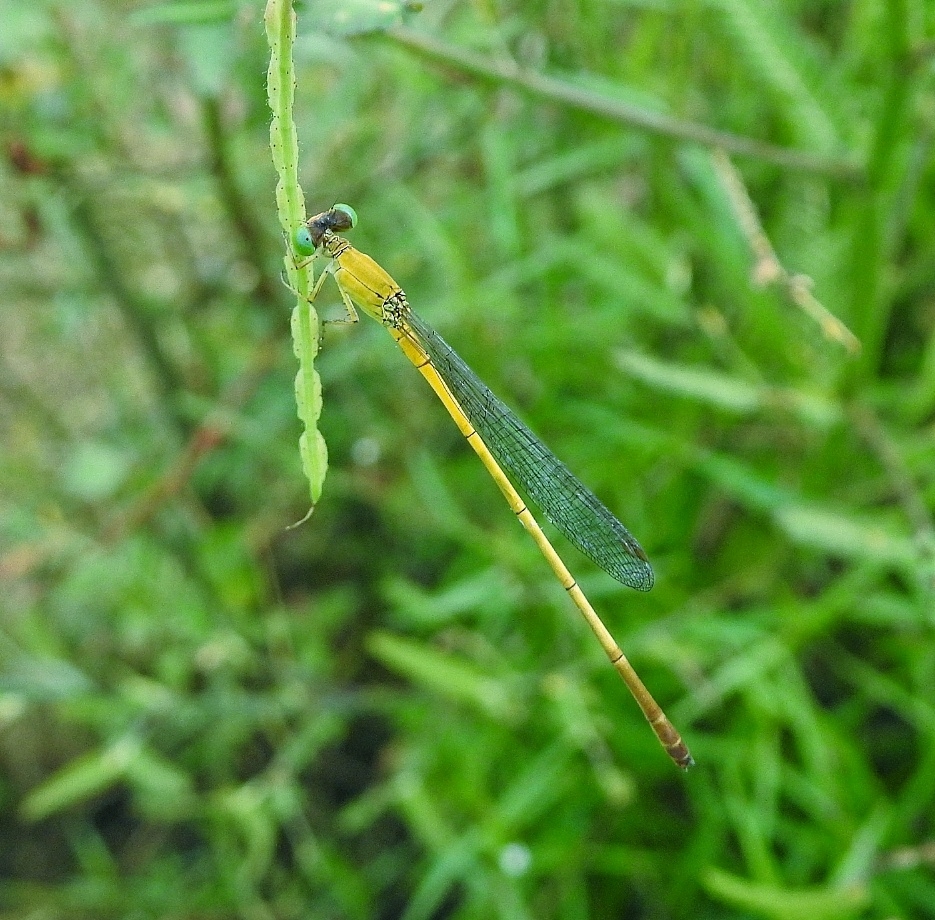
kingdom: Animalia
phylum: Arthropoda
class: Insecta
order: Odonata
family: Coenagrionidae
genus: Ceriagrion
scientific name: Ceriagrion chromothorax
